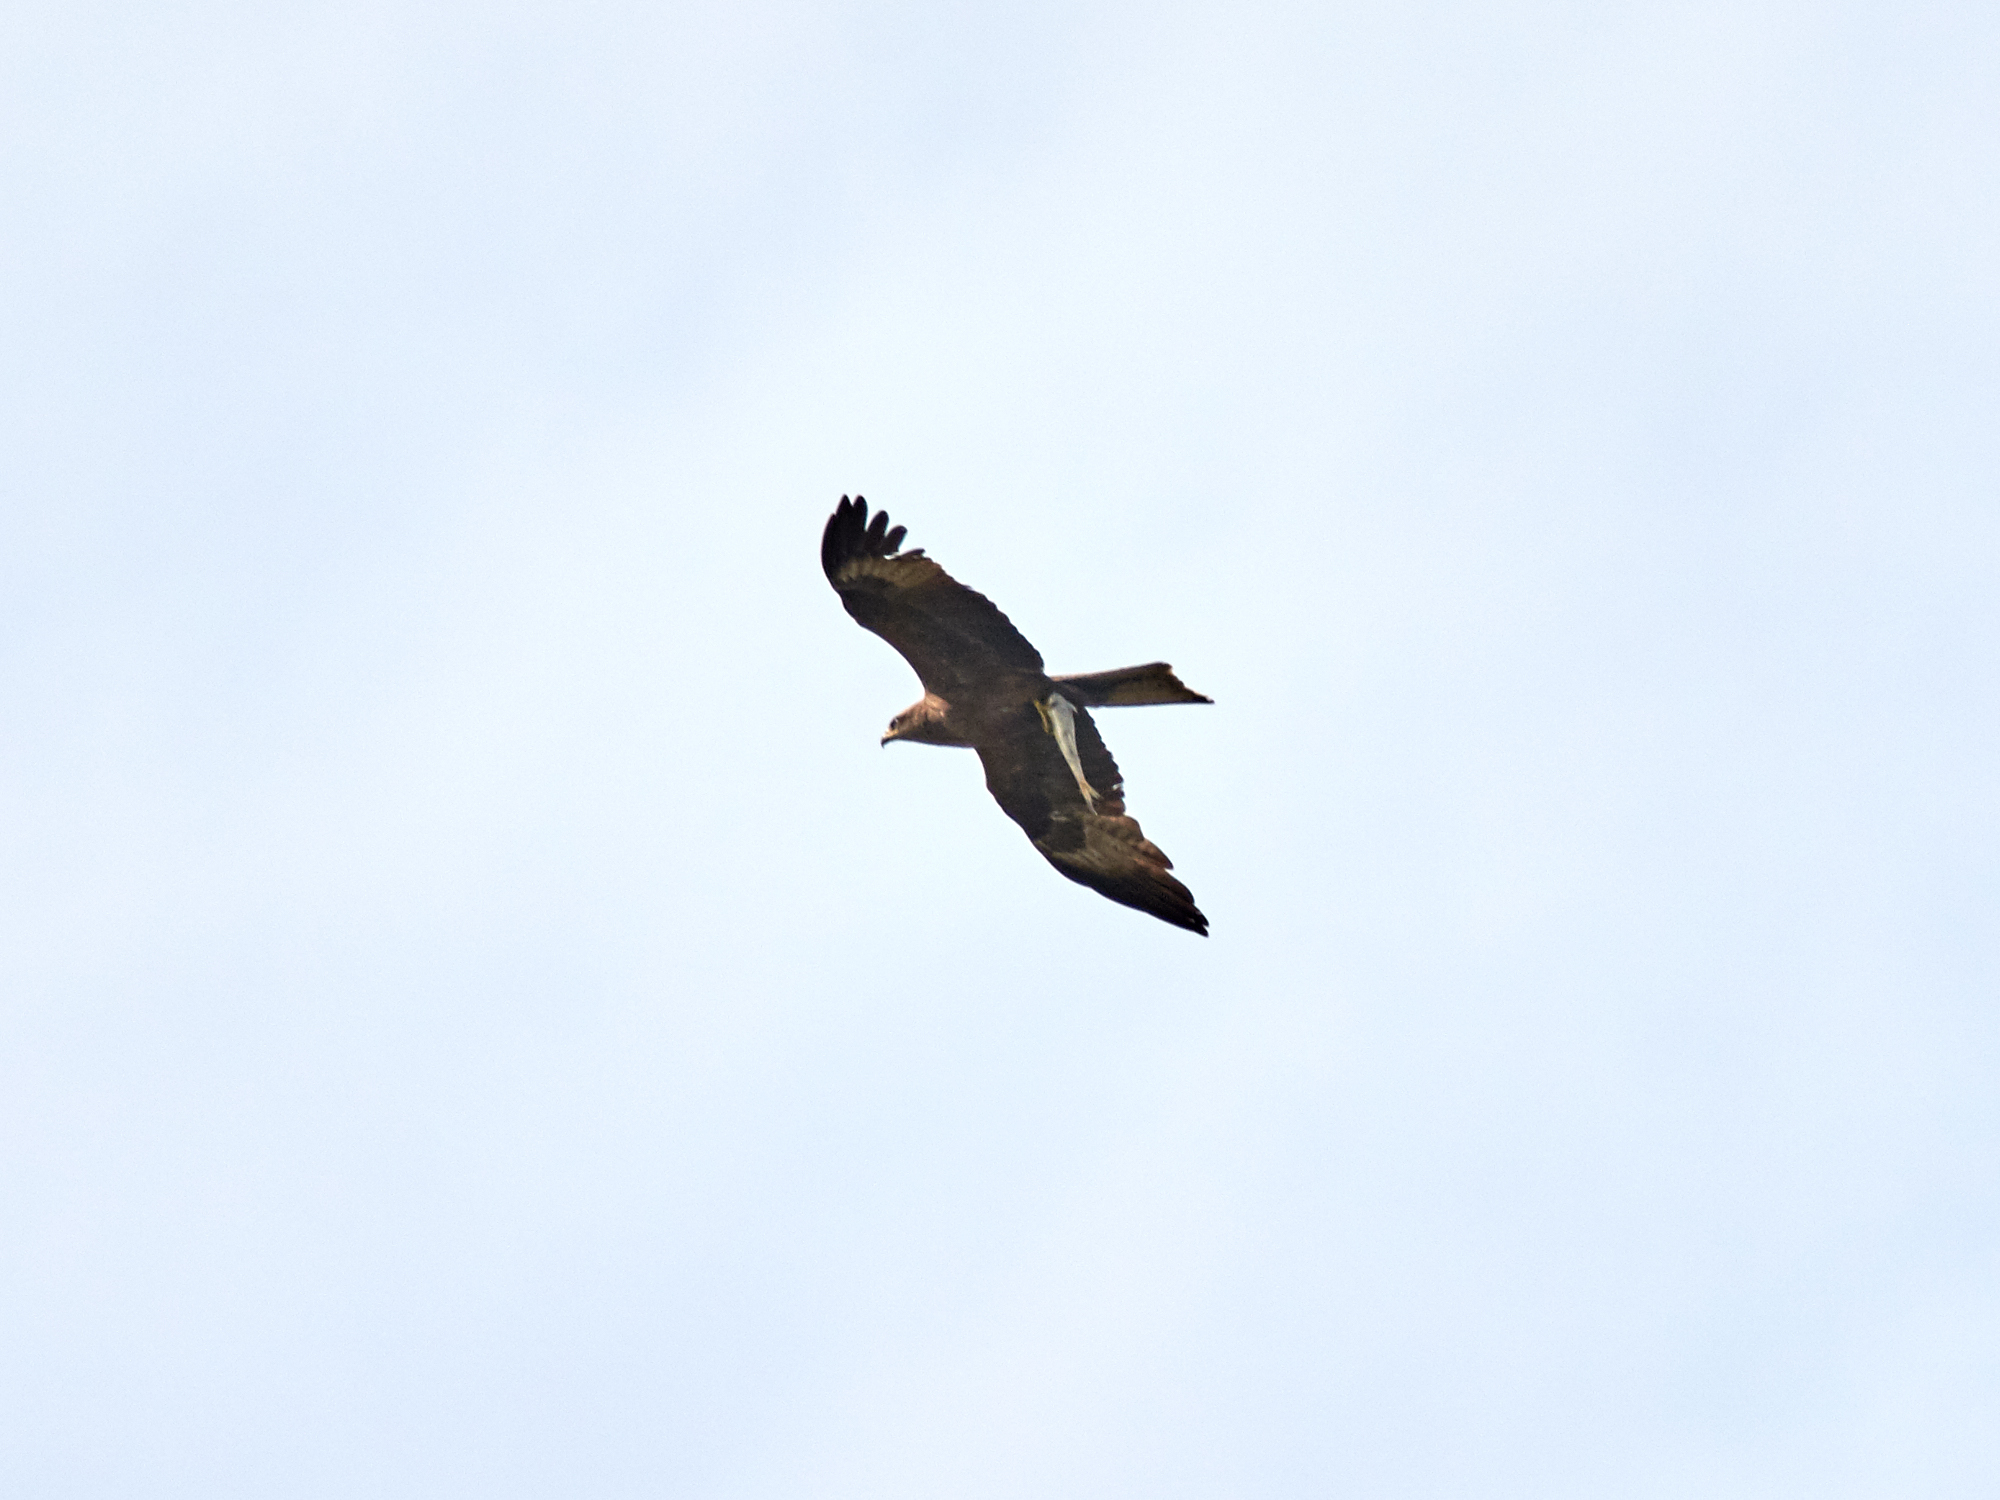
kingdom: Animalia
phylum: Chordata
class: Aves
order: Accipitriformes
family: Accipitridae
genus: Milvus
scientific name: Milvus migrans
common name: Black kite
